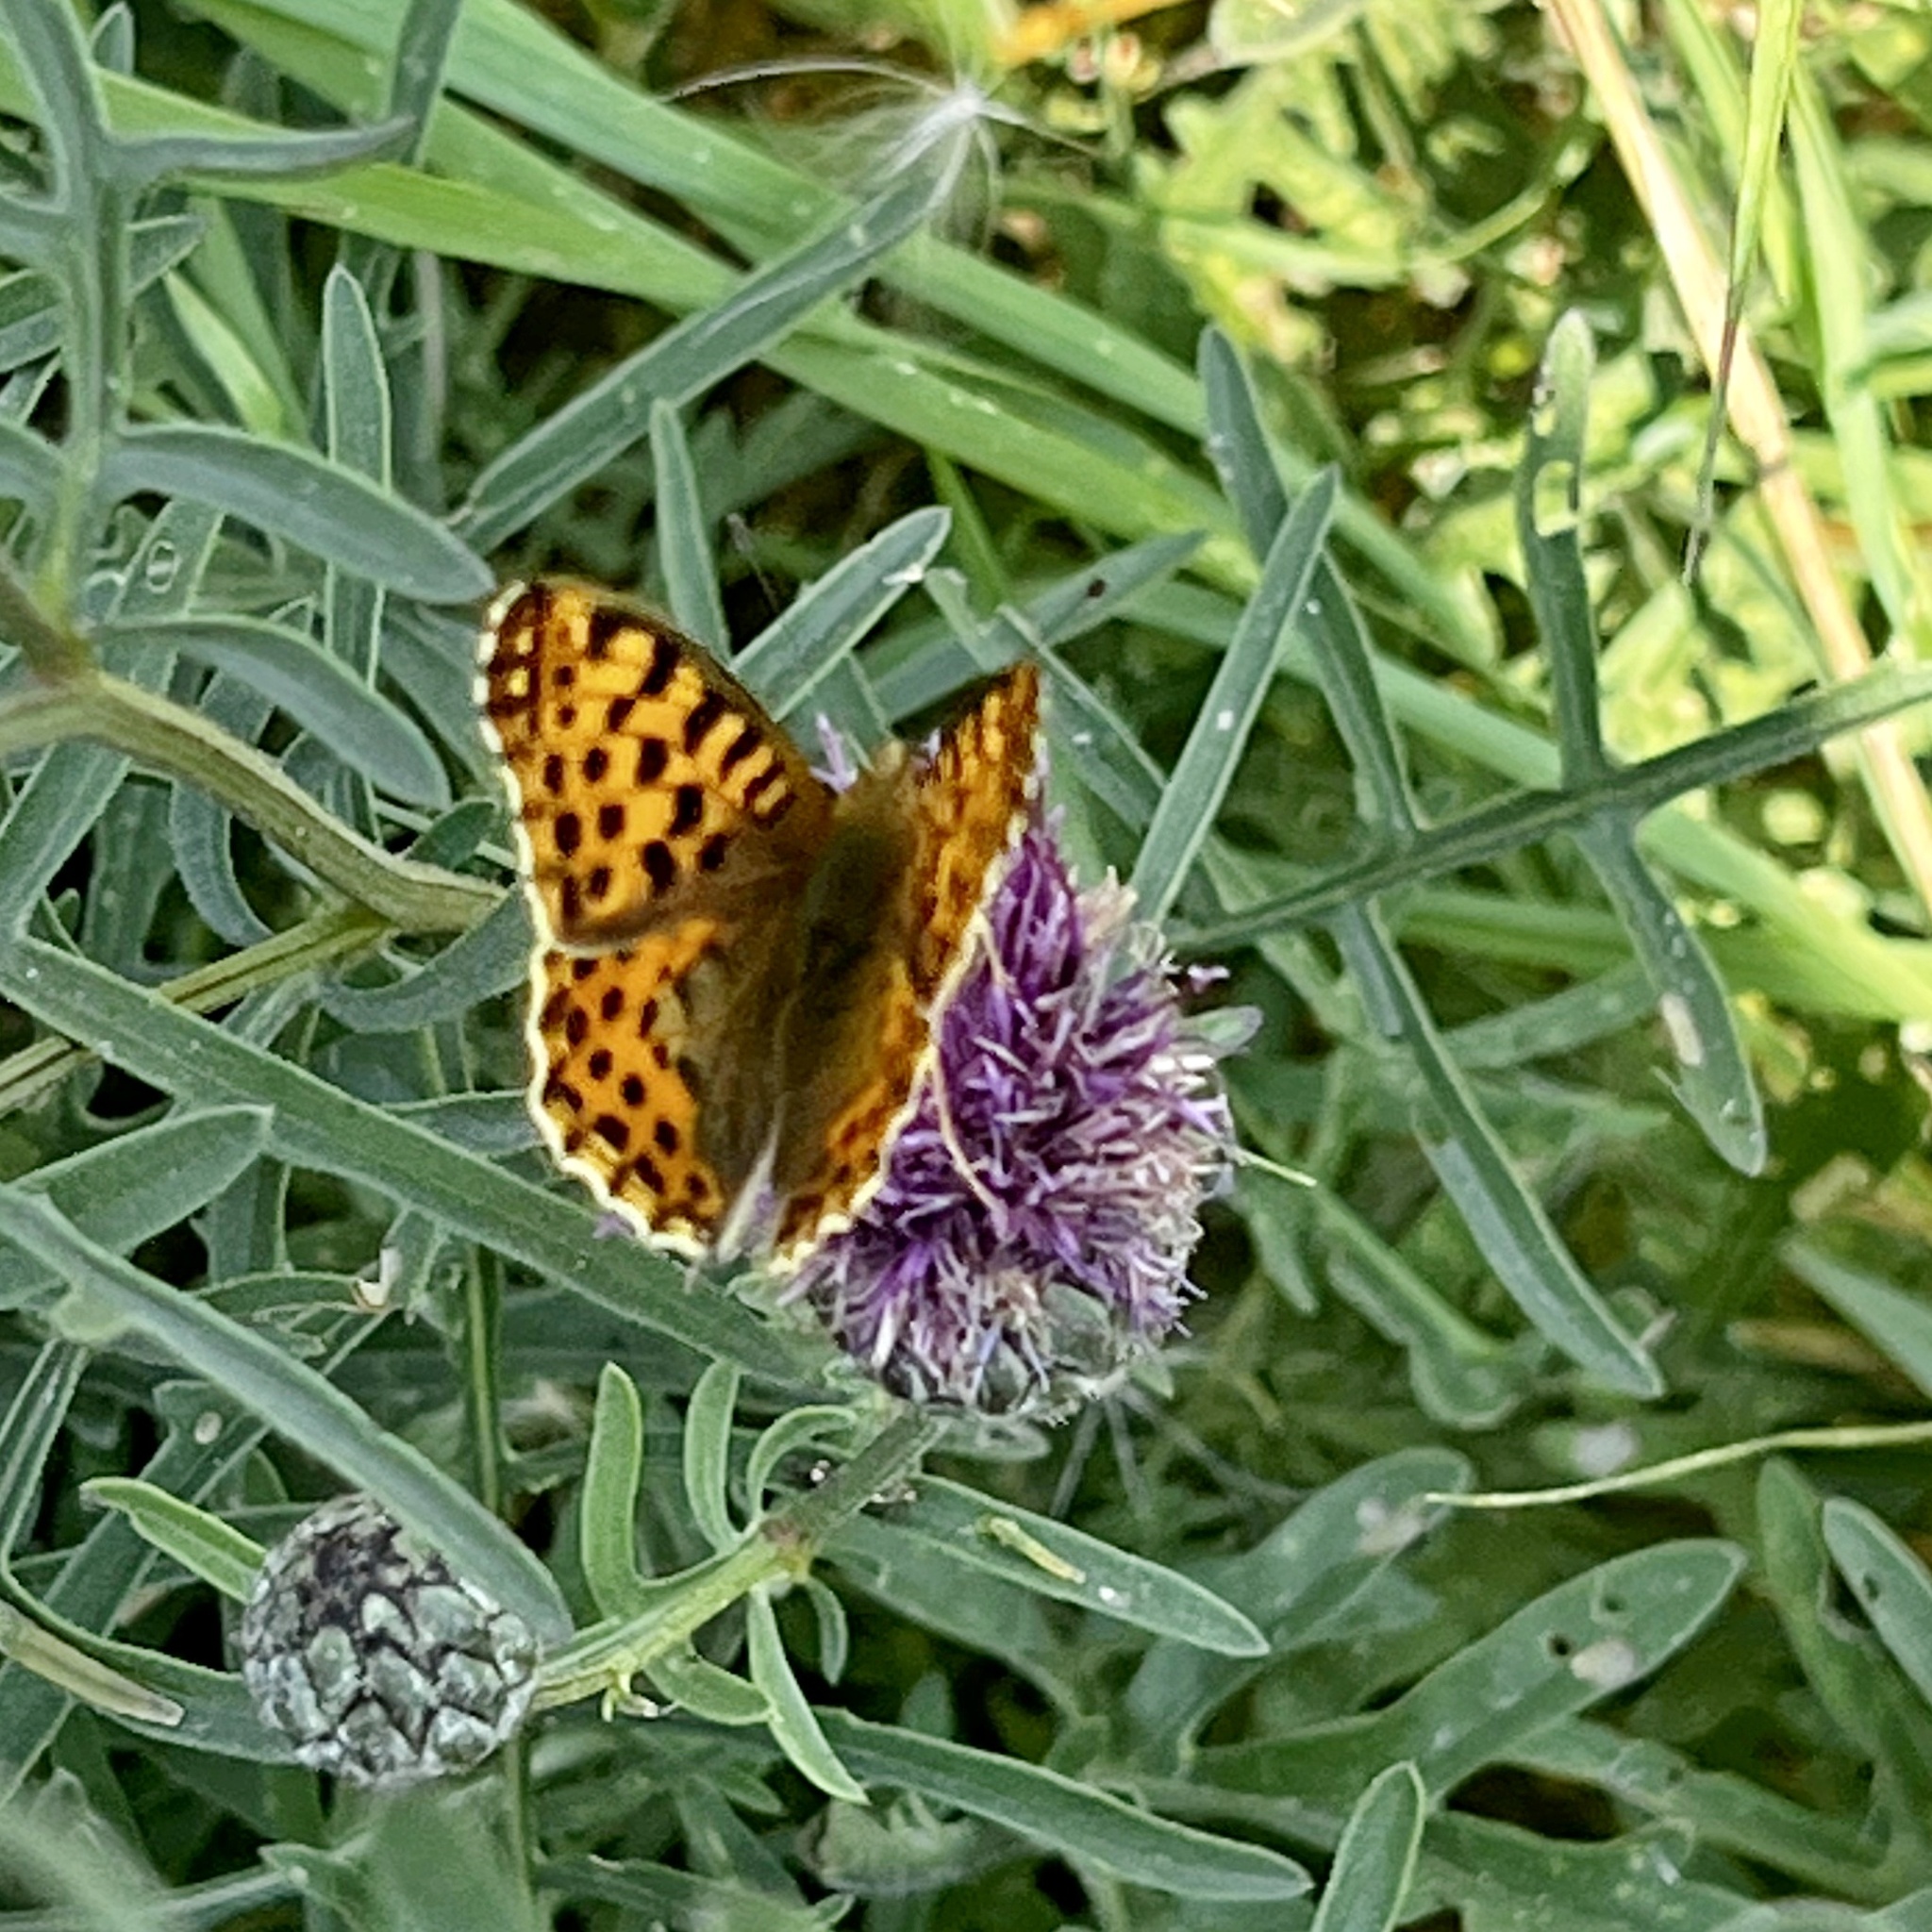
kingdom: Animalia
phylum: Arthropoda
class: Insecta
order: Lepidoptera
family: Nymphalidae
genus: Issoria
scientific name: Issoria lathonia
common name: Queen of spain fritillary
